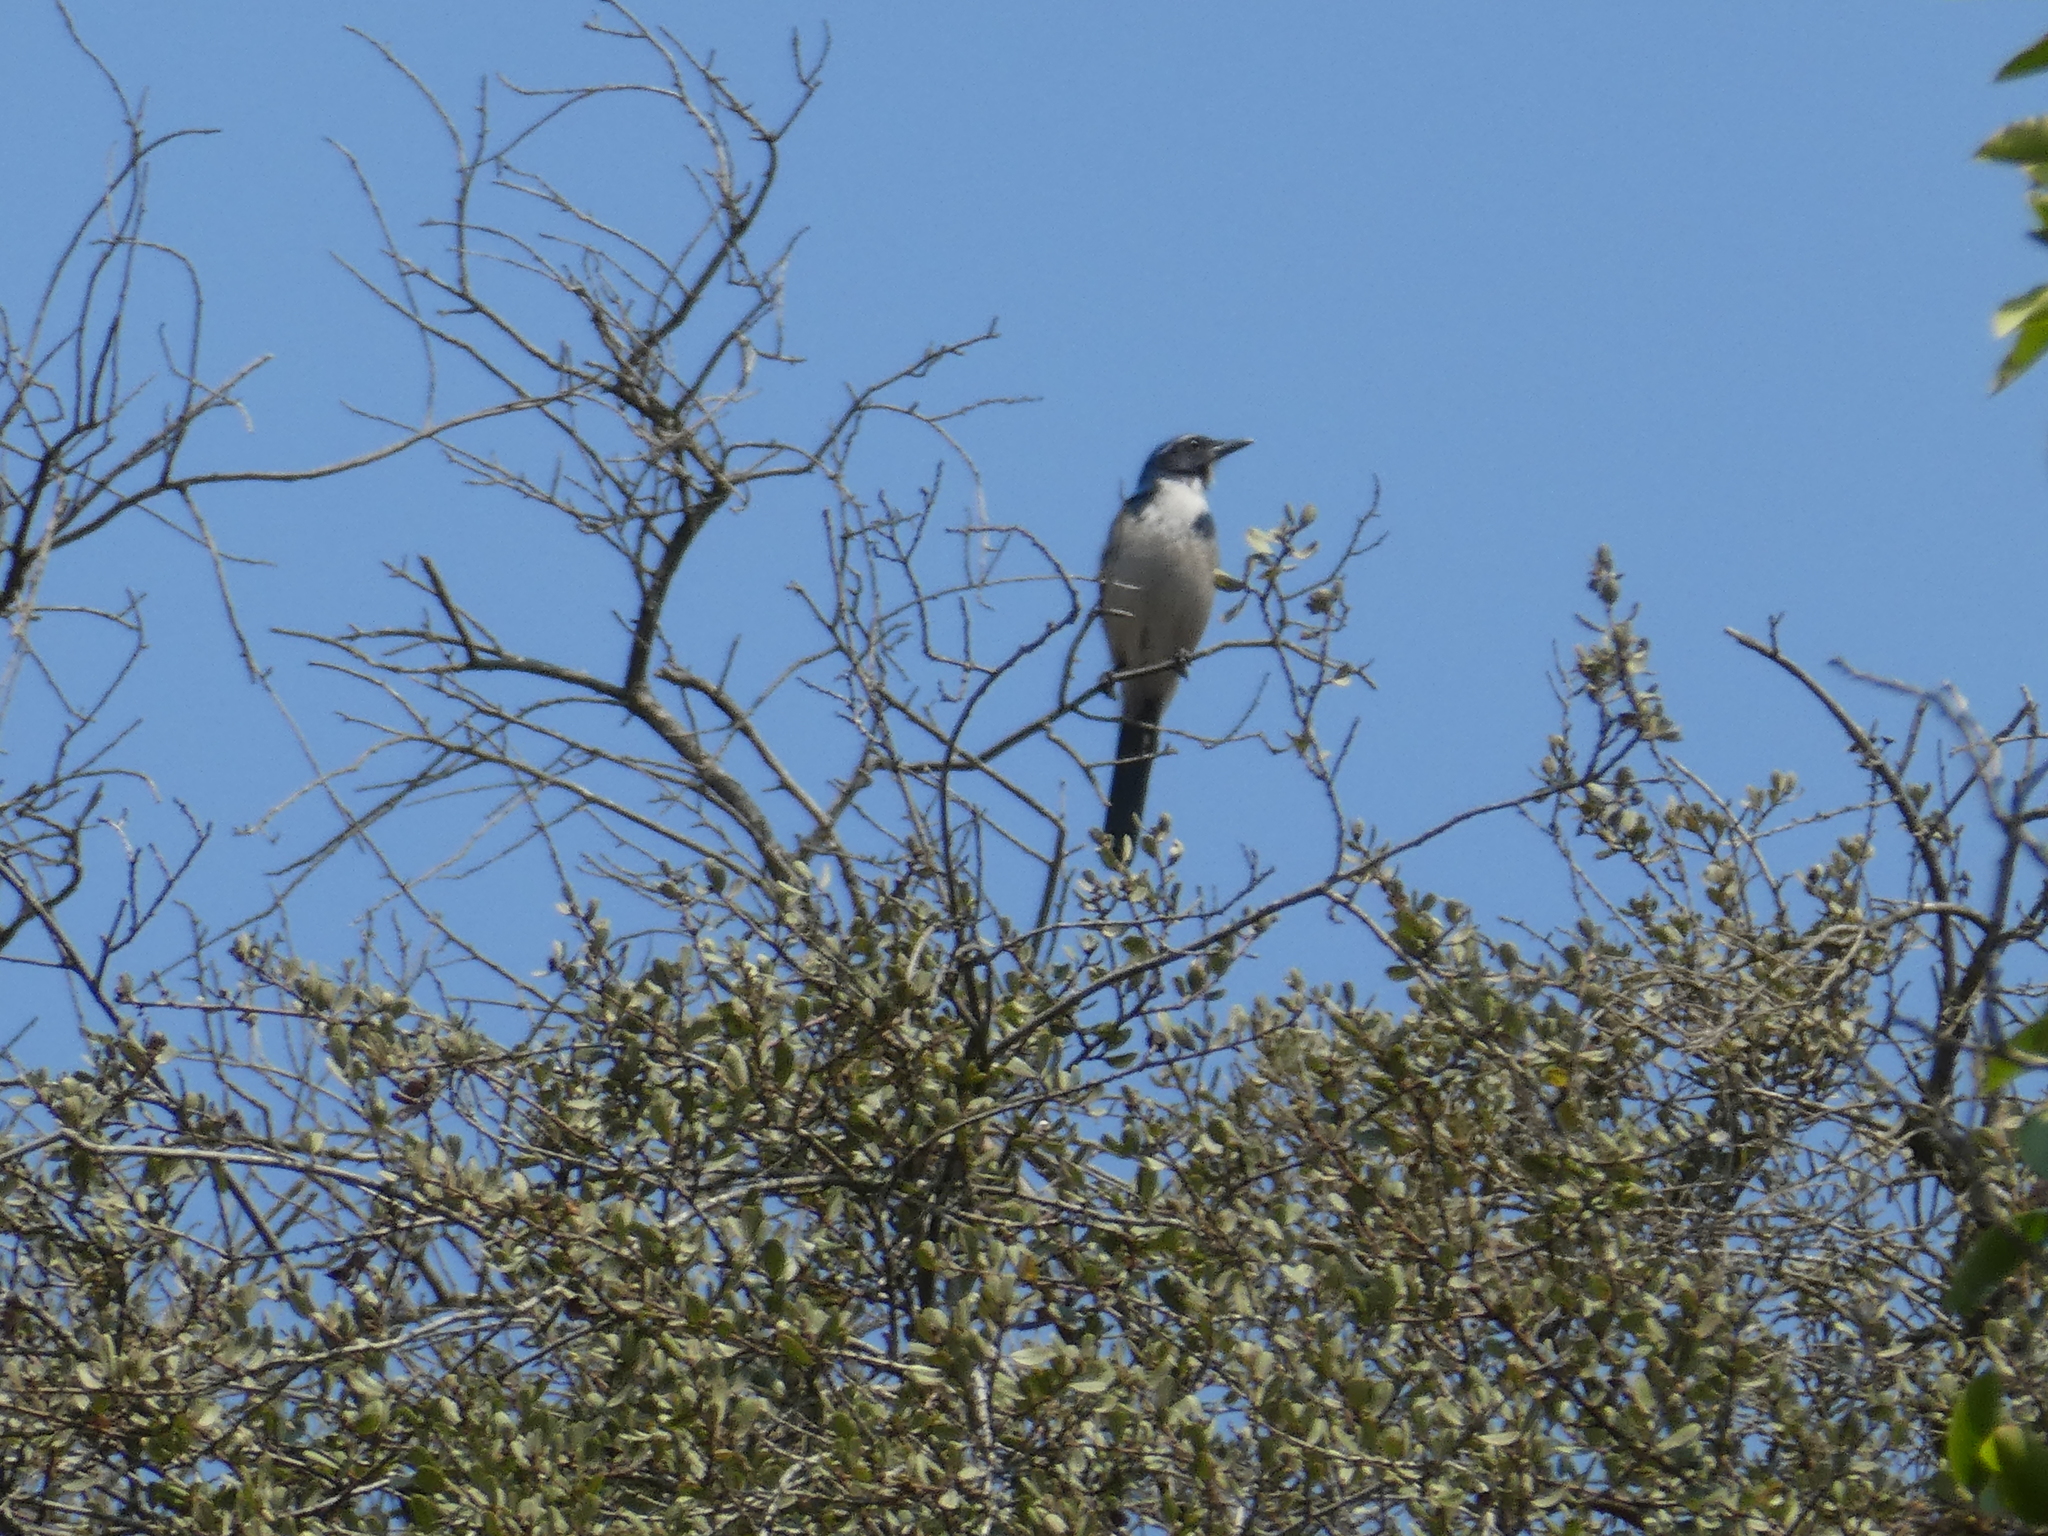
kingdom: Animalia
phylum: Chordata
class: Aves
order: Passeriformes
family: Corvidae
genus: Aphelocoma
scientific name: Aphelocoma californica
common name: California scrub-jay
